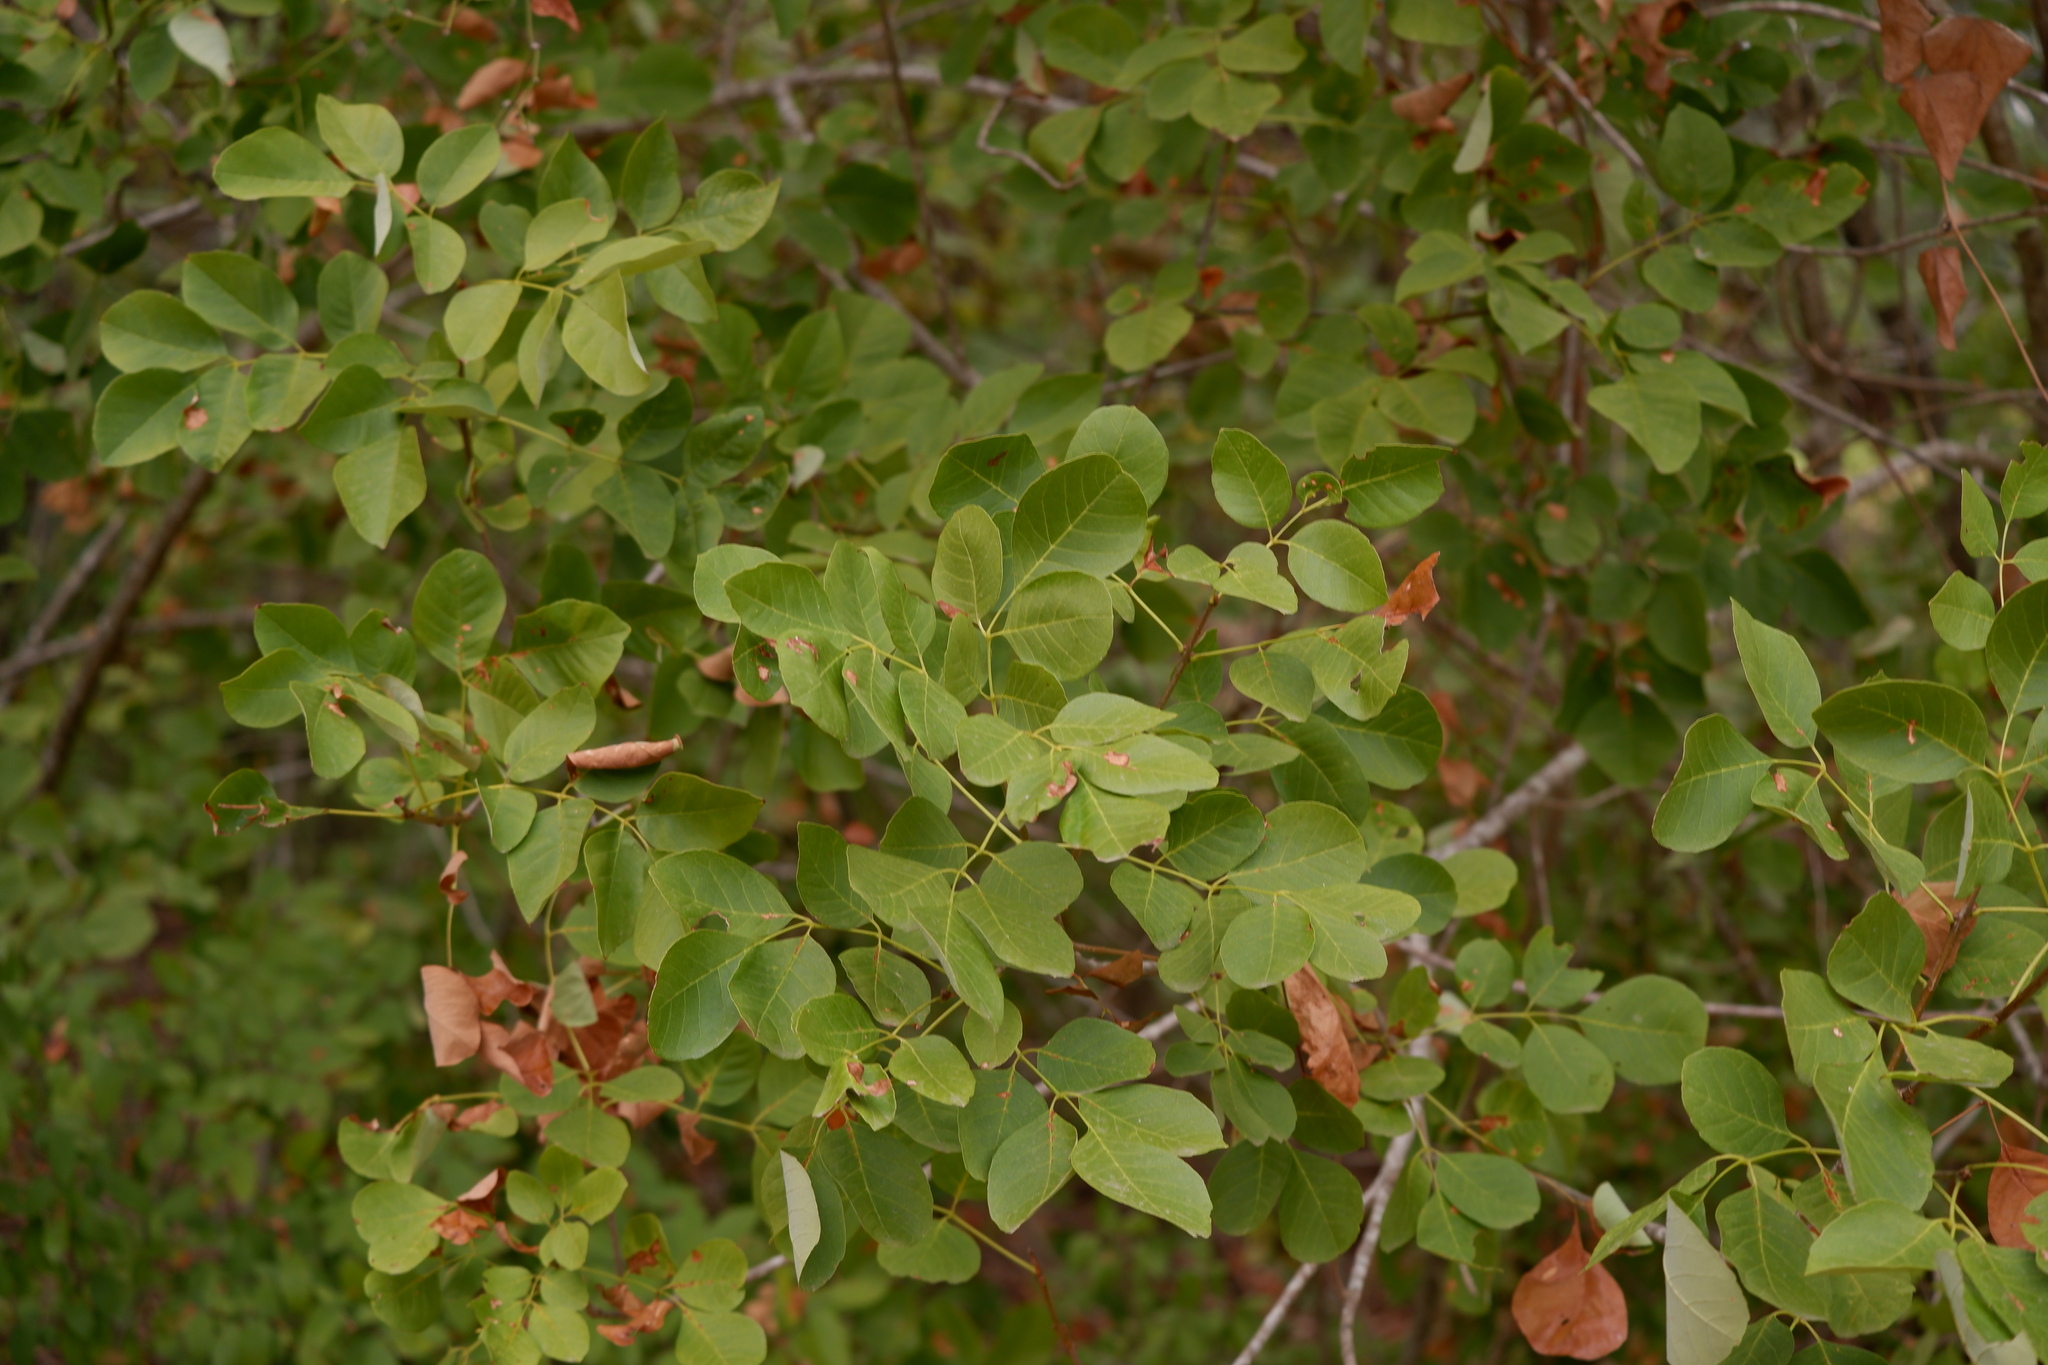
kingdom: Plantae
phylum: Tracheophyta
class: Magnoliopsida
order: Lamiales
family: Oleaceae
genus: Fraxinus
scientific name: Fraxinus albicans
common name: Texas ash
